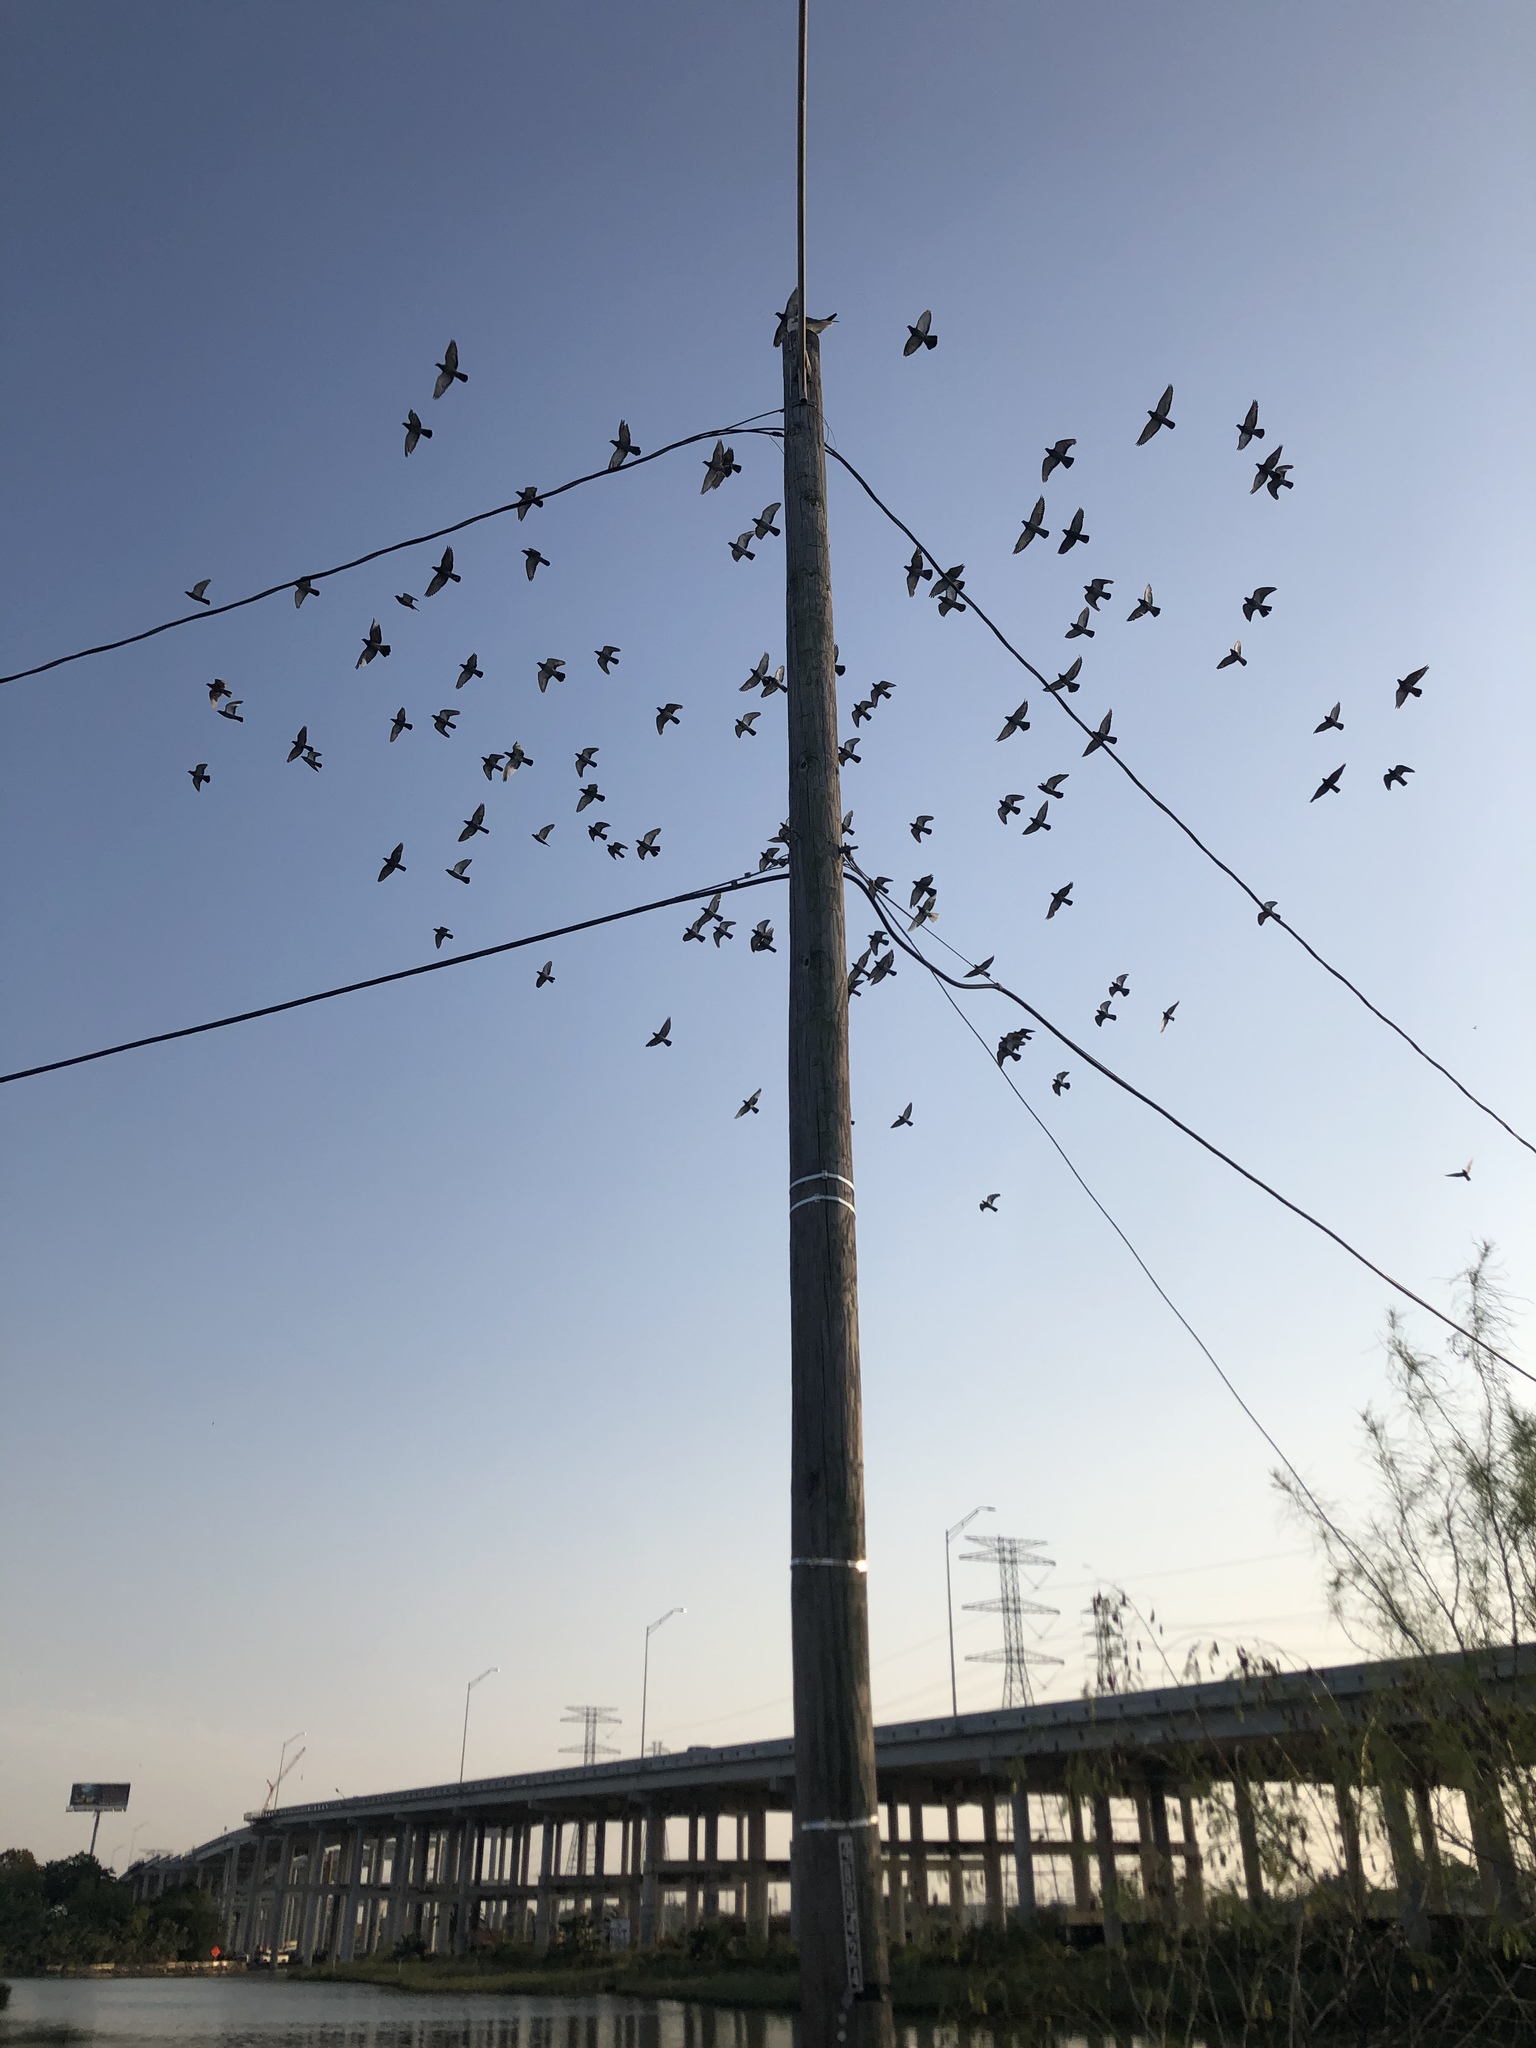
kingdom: Animalia
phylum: Chordata
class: Aves
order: Columbiformes
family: Columbidae
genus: Columba
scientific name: Columba livia
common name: Rock pigeon
